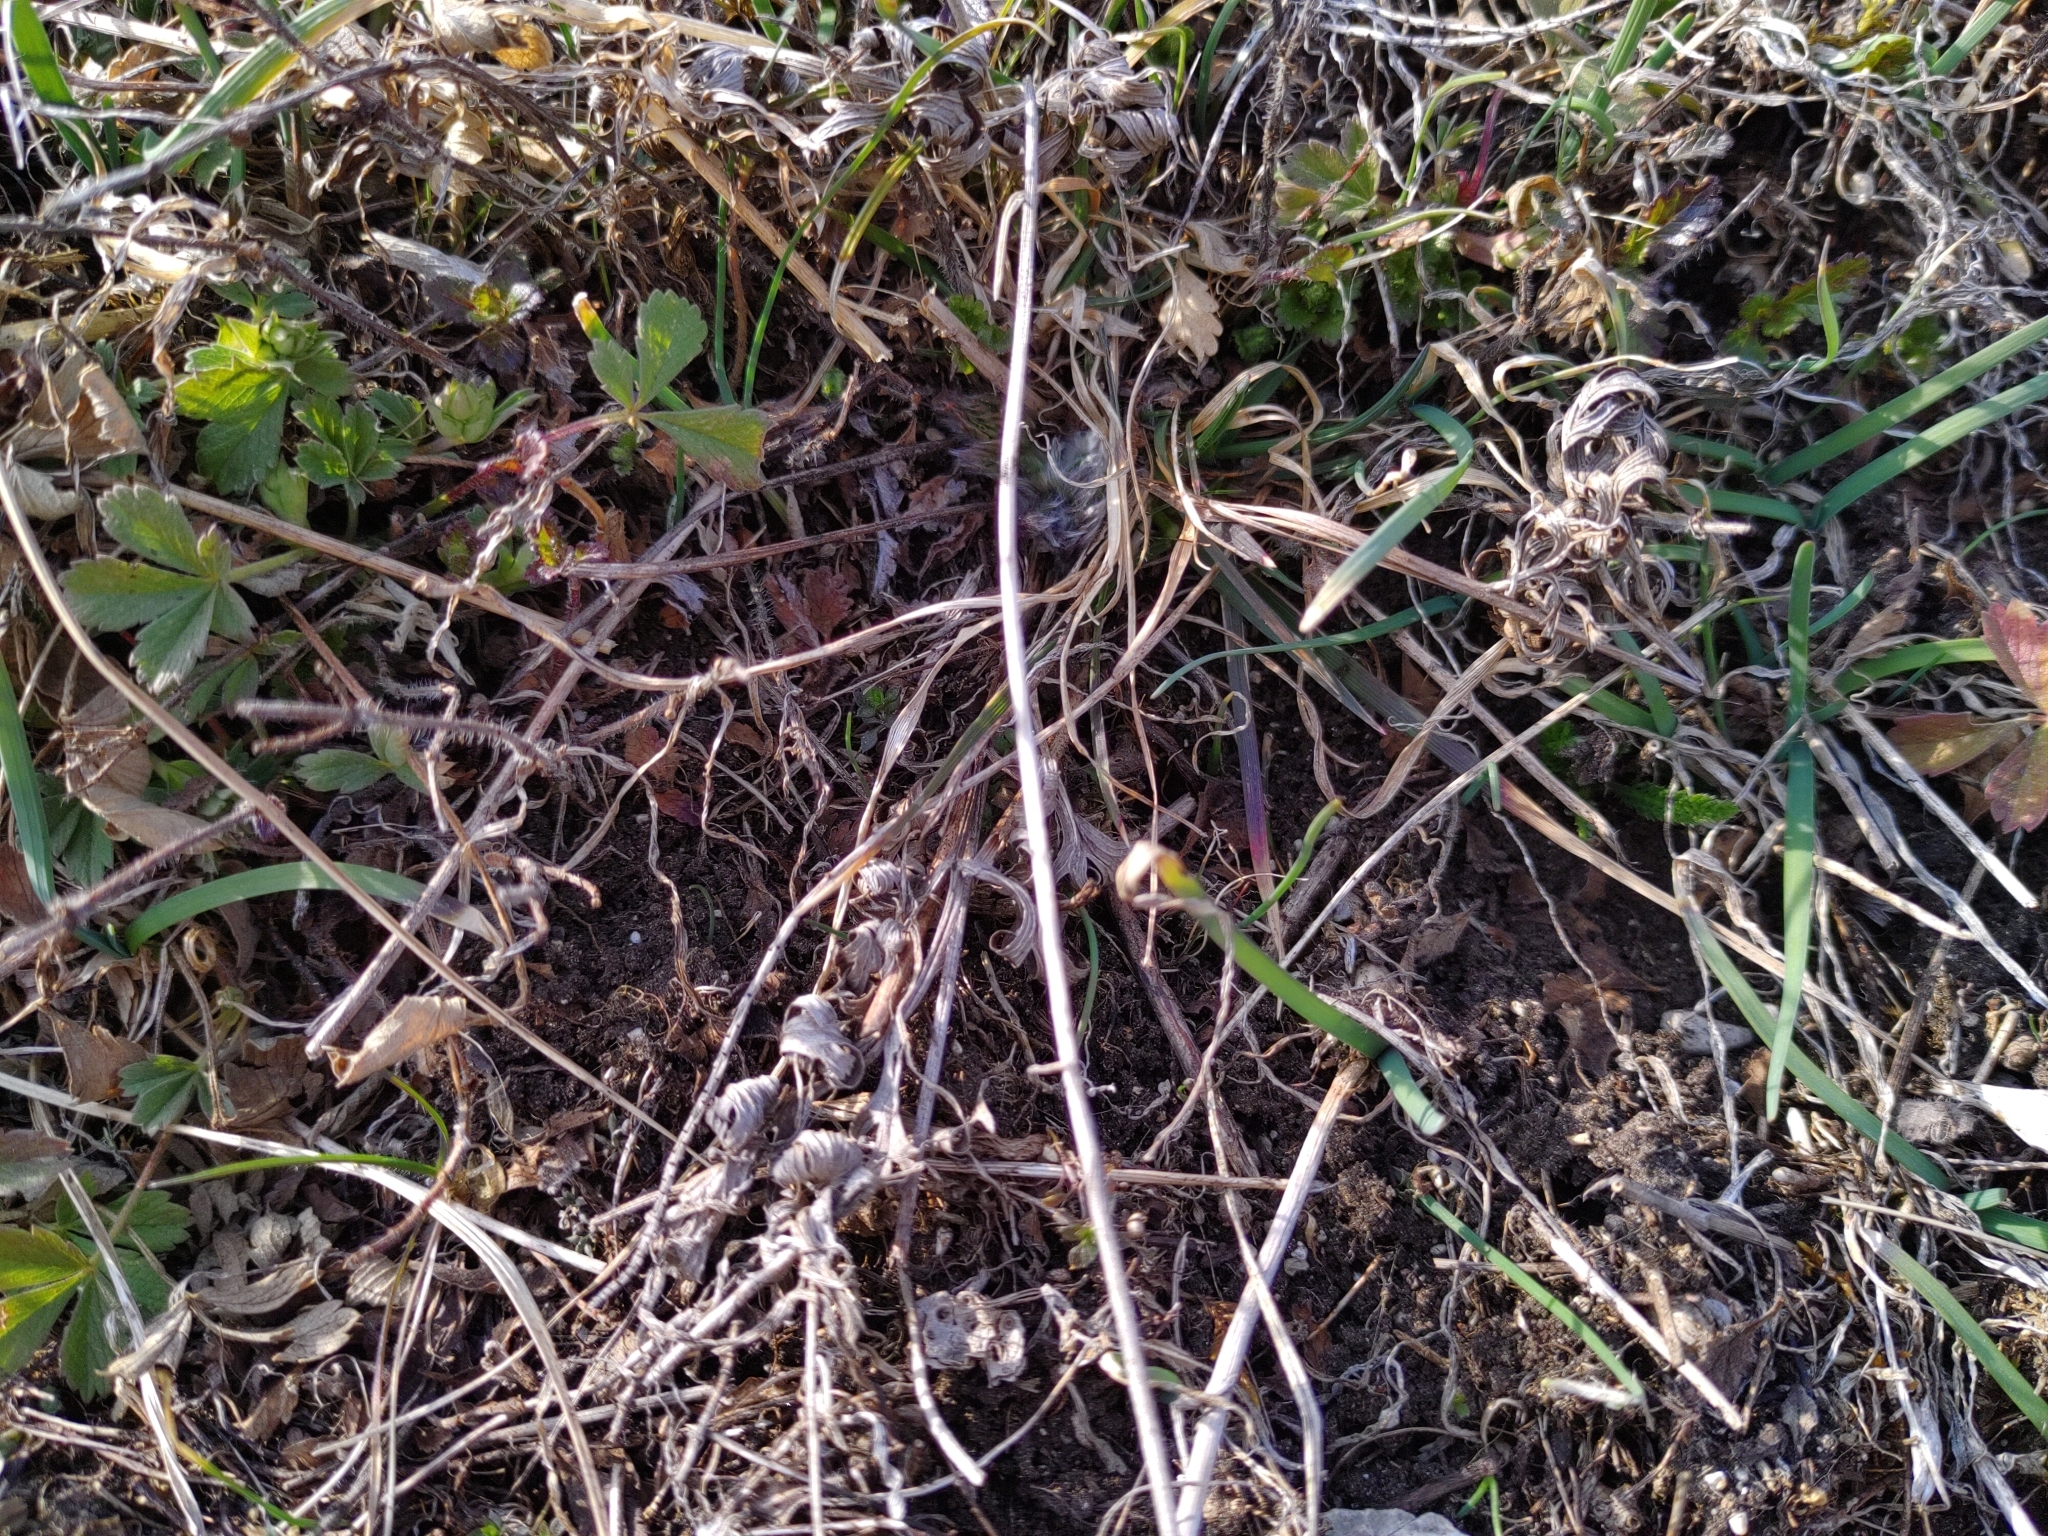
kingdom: Plantae
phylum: Tracheophyta
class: Magnoliopsida
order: Ranunculales
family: Ranunculaceae
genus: Pulsatilla
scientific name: Pulsatilla pratensis
